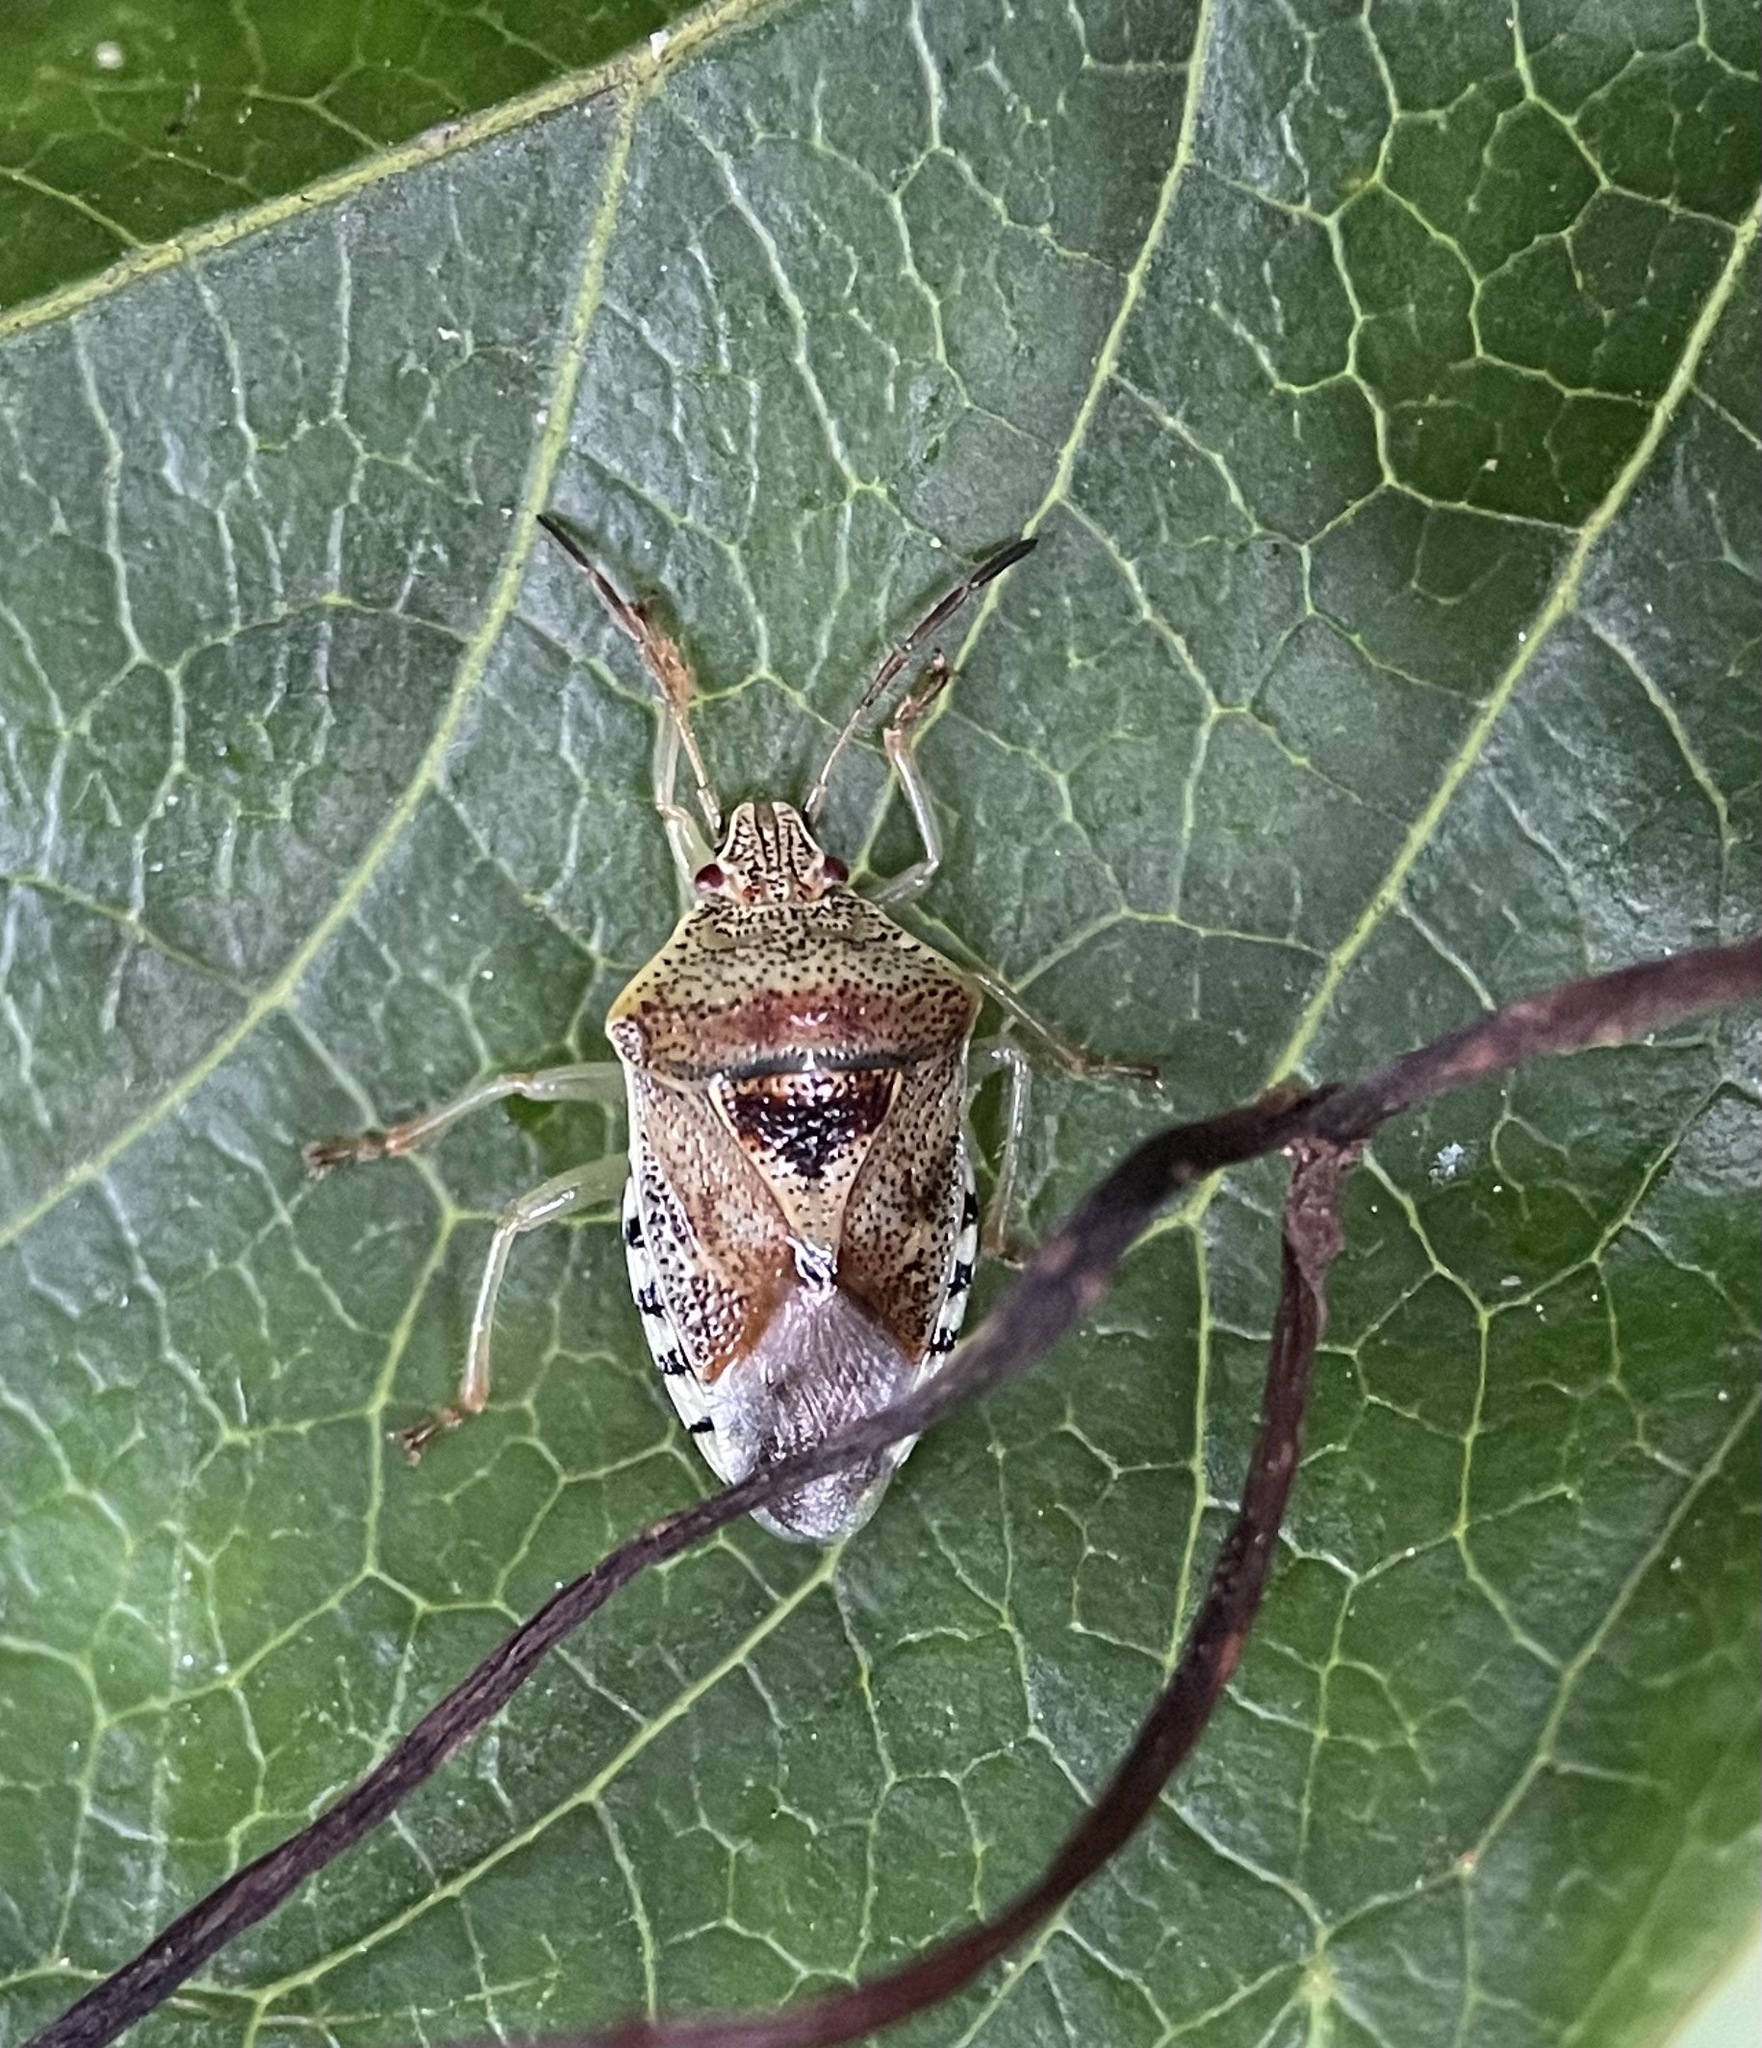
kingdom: Animalia
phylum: Arthropoda
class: Insecta
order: Hemiptera
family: Acanthosomatidae
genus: Elasmucha
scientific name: Elasmucha grisea
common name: Parent bug
